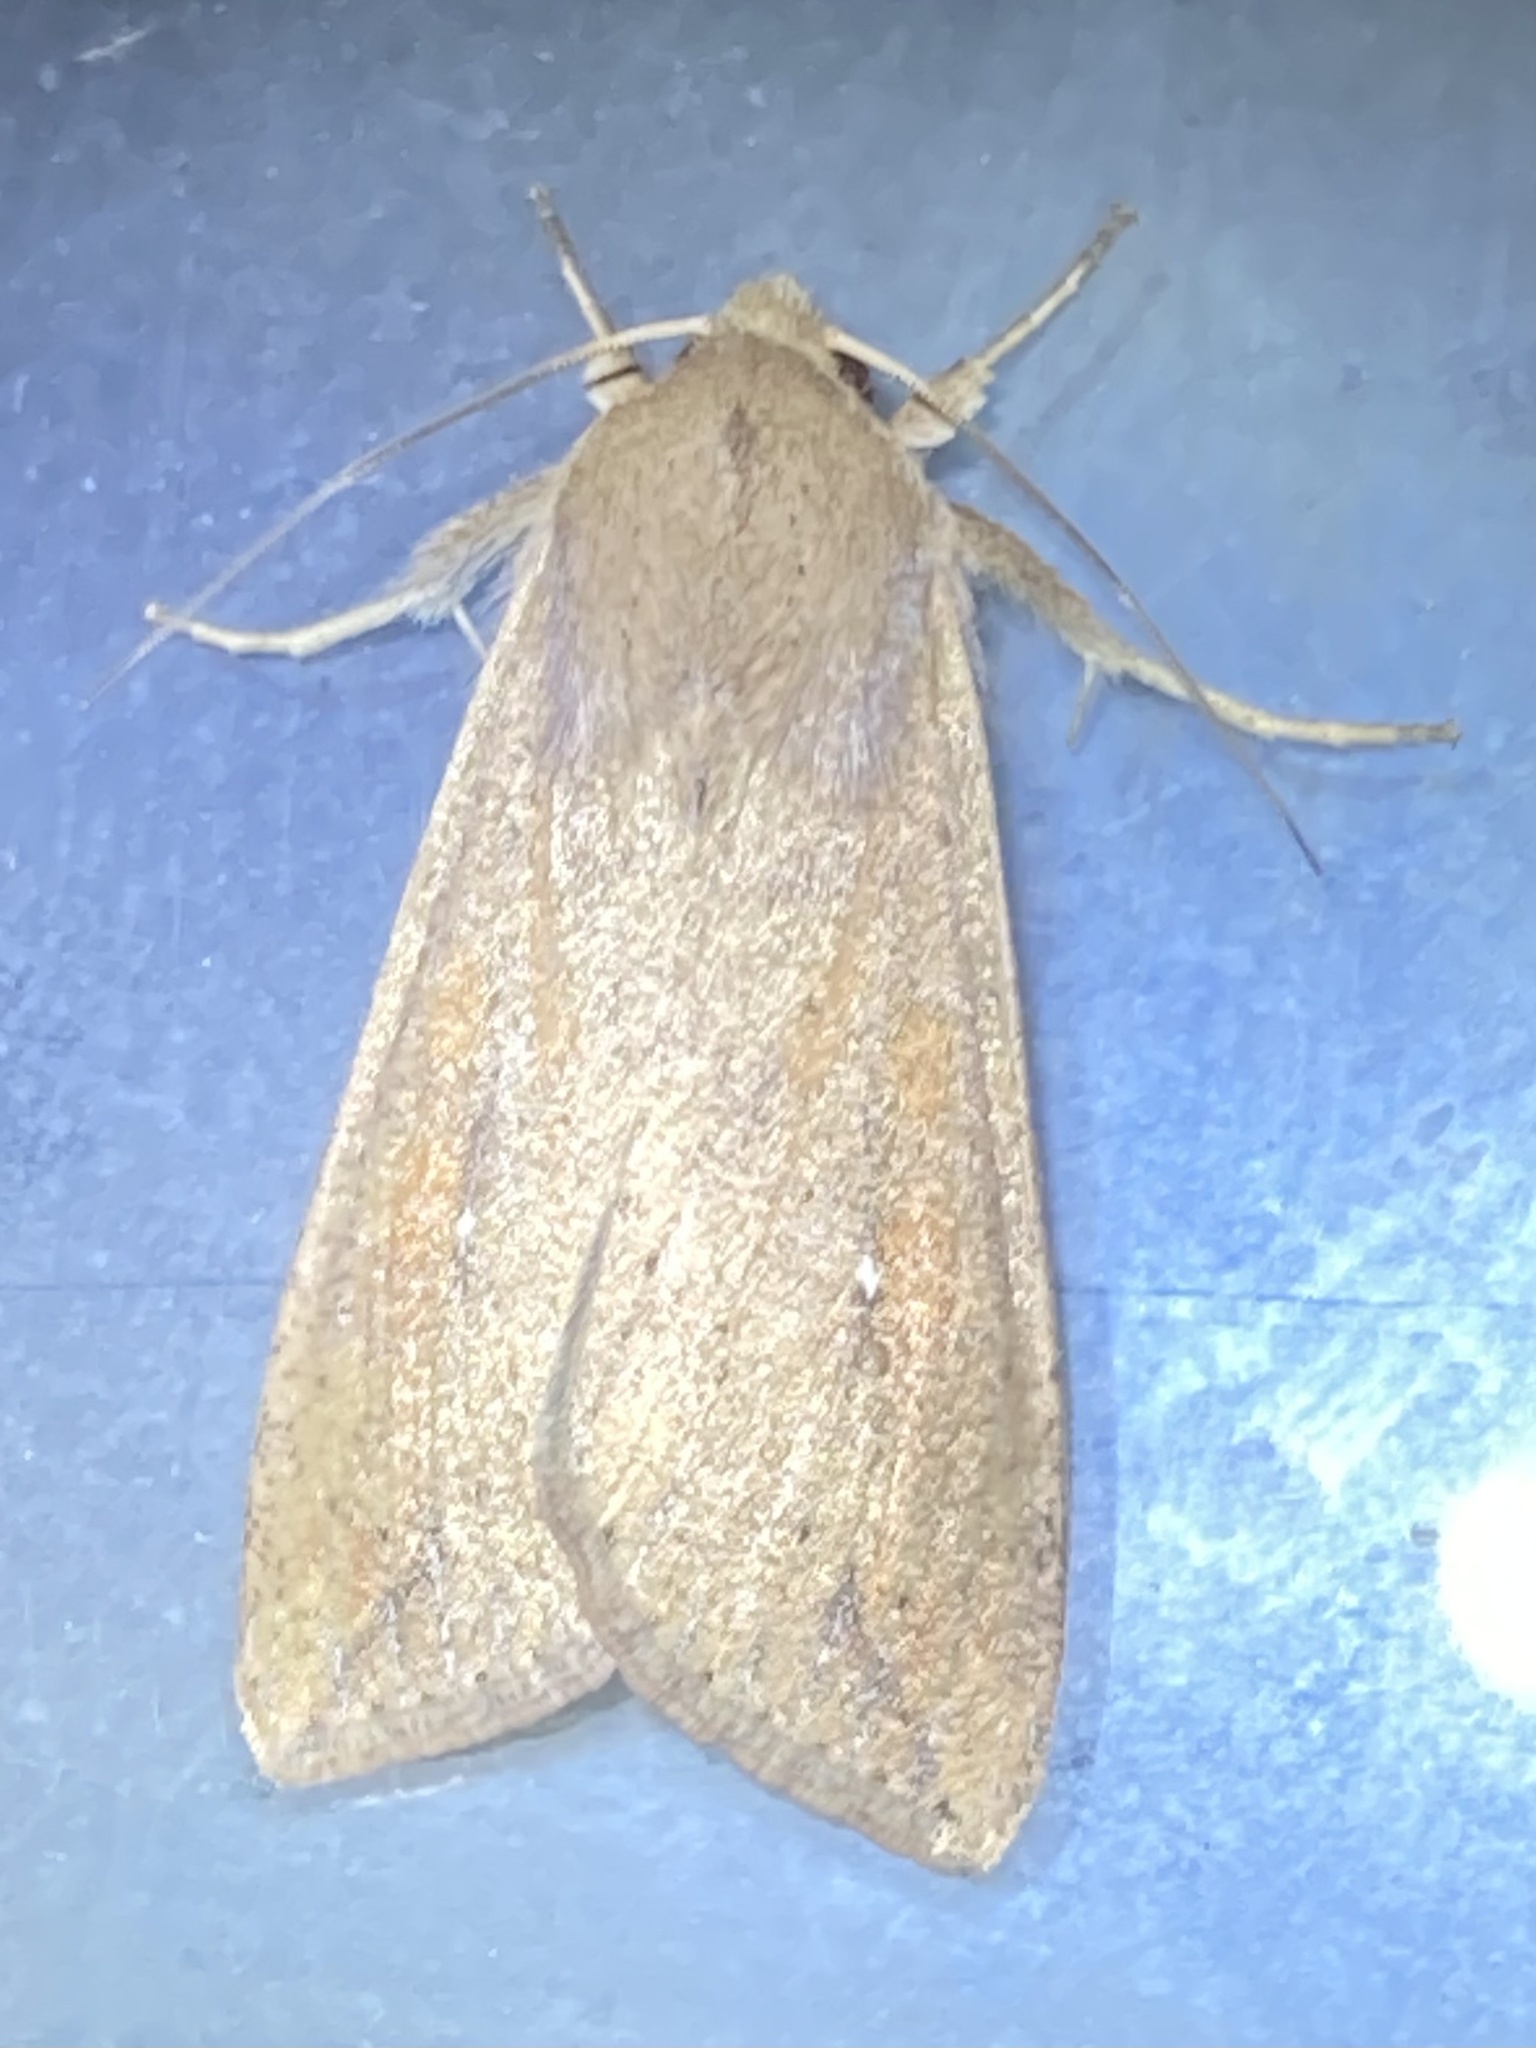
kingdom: Animalia
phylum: Arthropoda
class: Insecta
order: Lepidoptera
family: Noctuidae
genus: Mythimna
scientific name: Mythimna unipuncta
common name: White-speck
